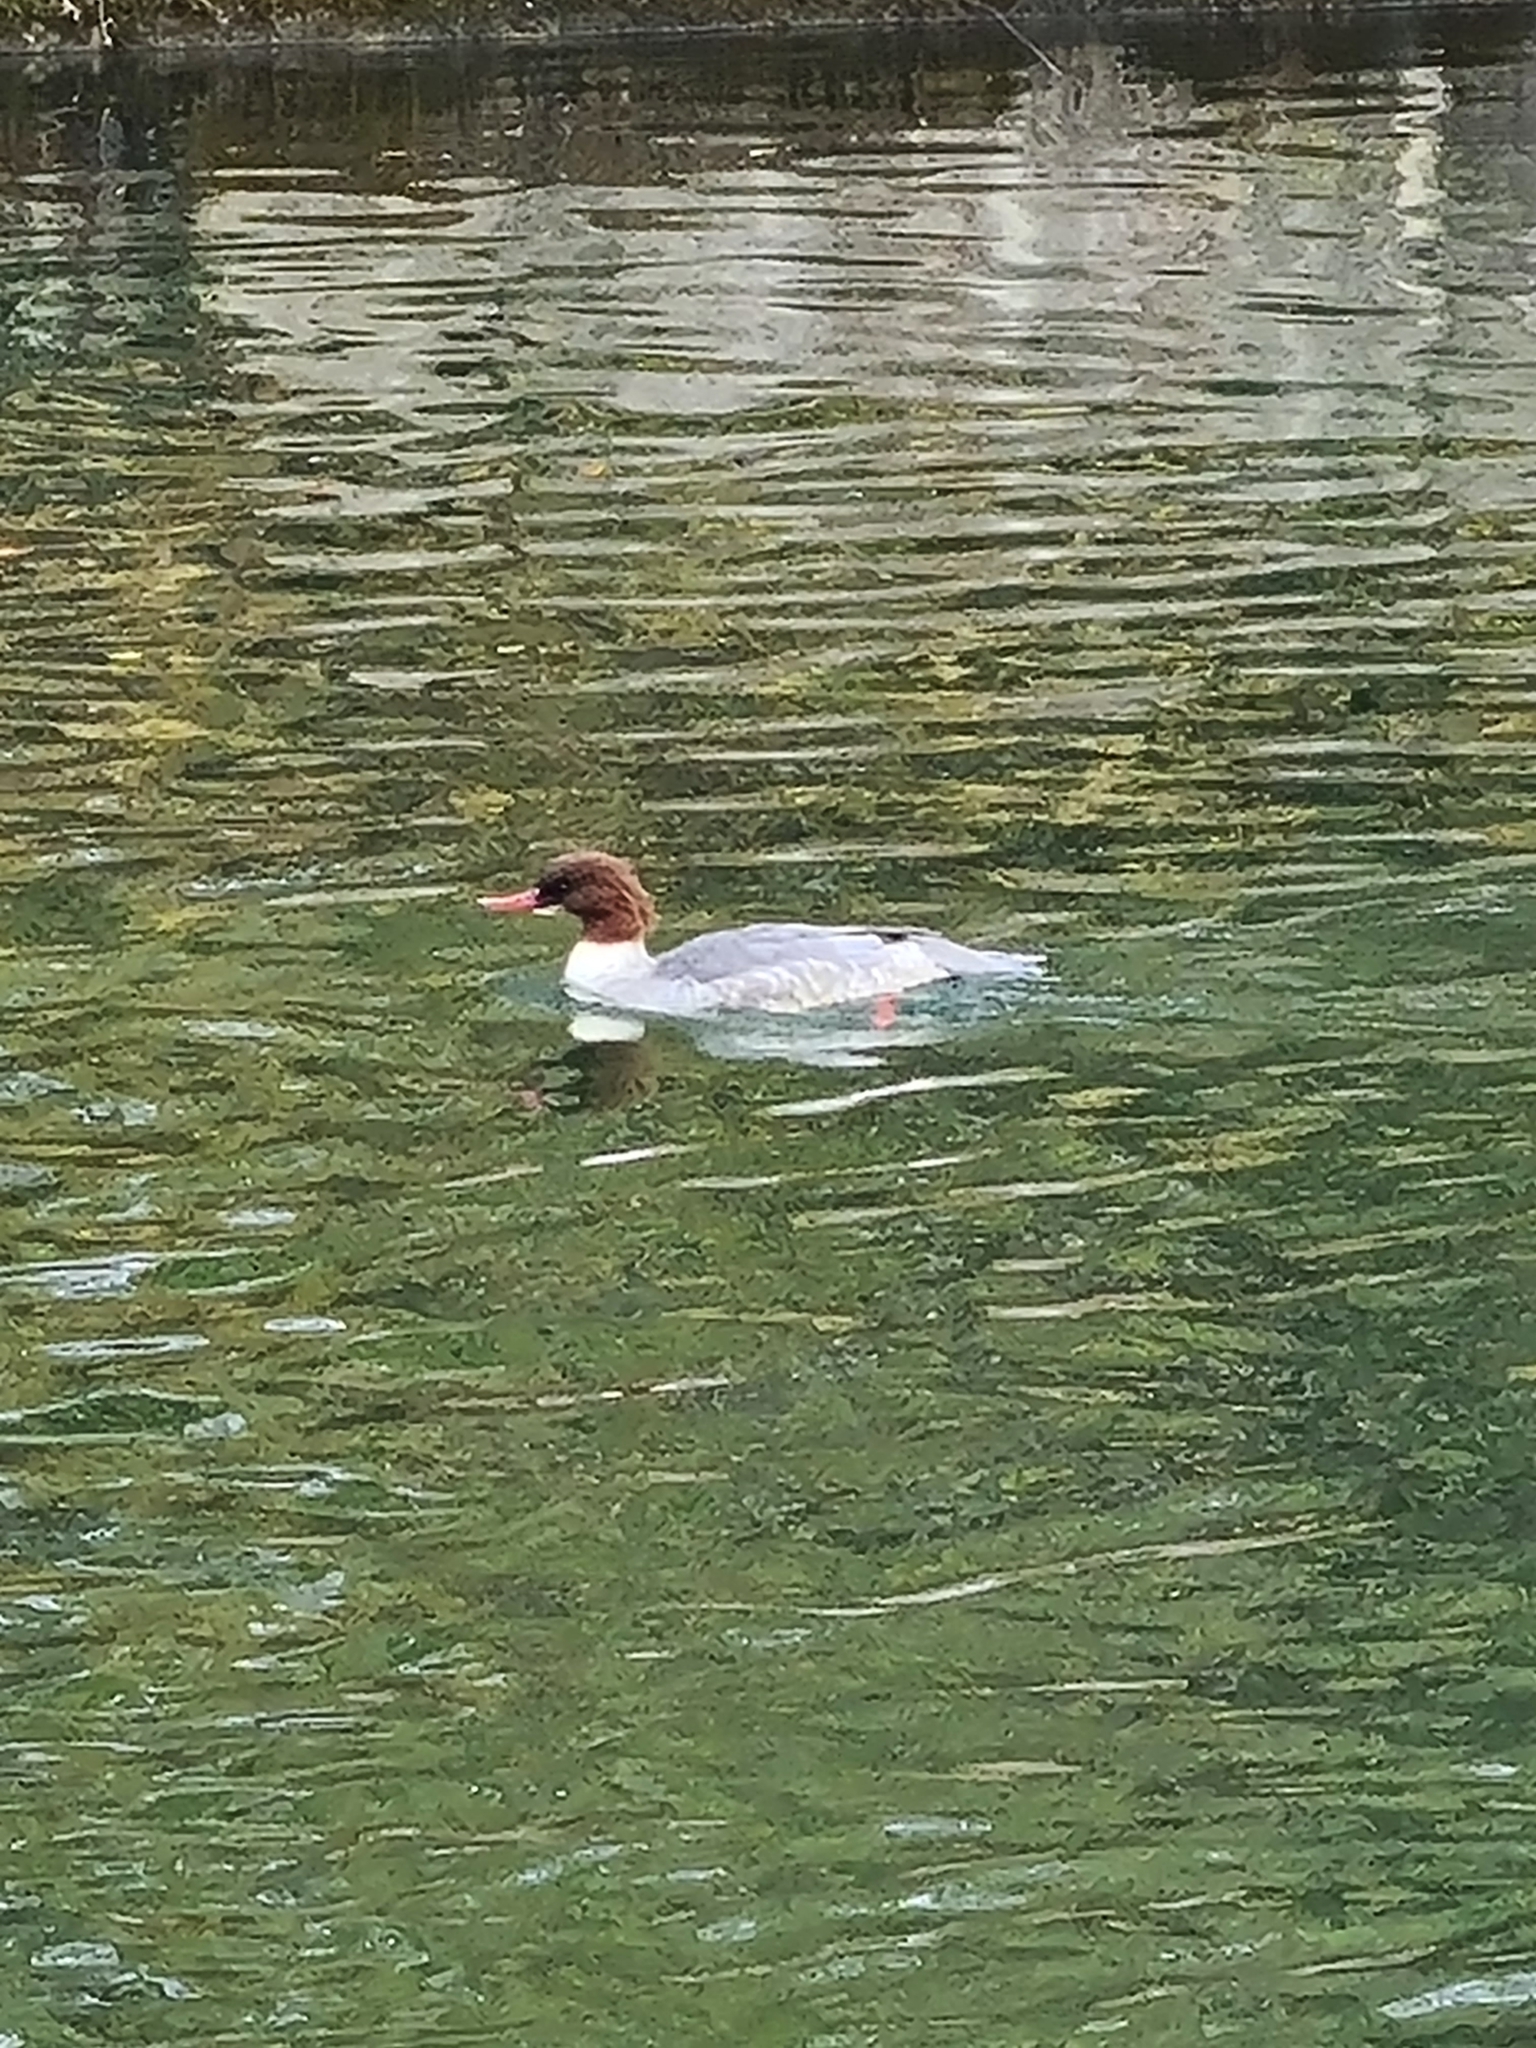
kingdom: Animalia
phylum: Chordata
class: Aves
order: Anseriformes
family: Anatidae
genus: Mergus
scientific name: Mergus merganser
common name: Common merganser
